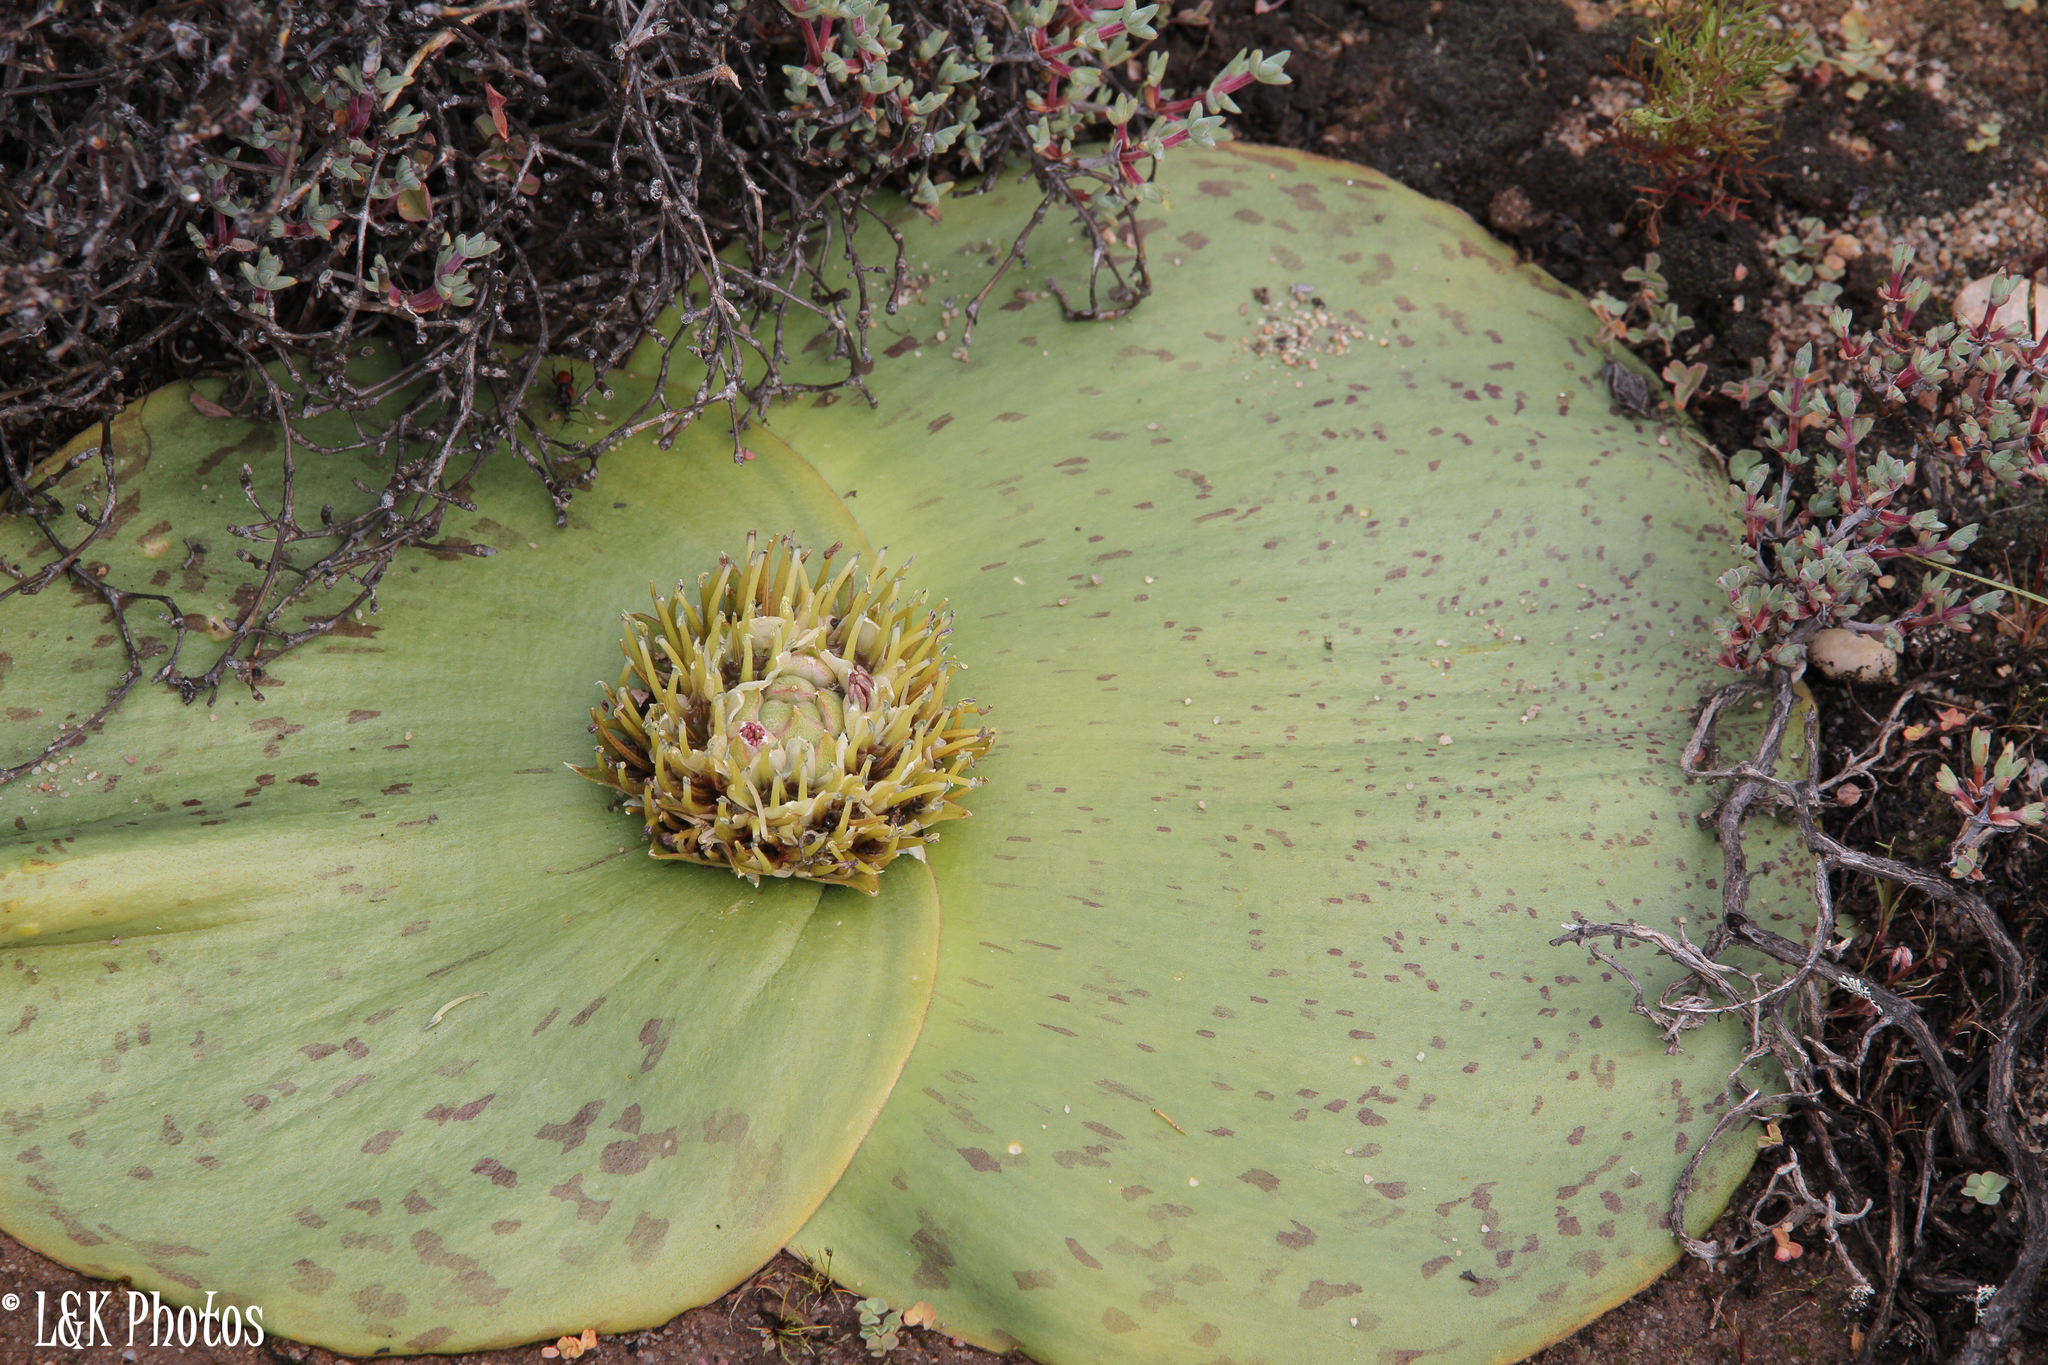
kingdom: Plantae
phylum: Tracheophyta
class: Liliopsida
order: Asparagales
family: Asparagaceae
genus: Massonia
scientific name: Massonia depressa
